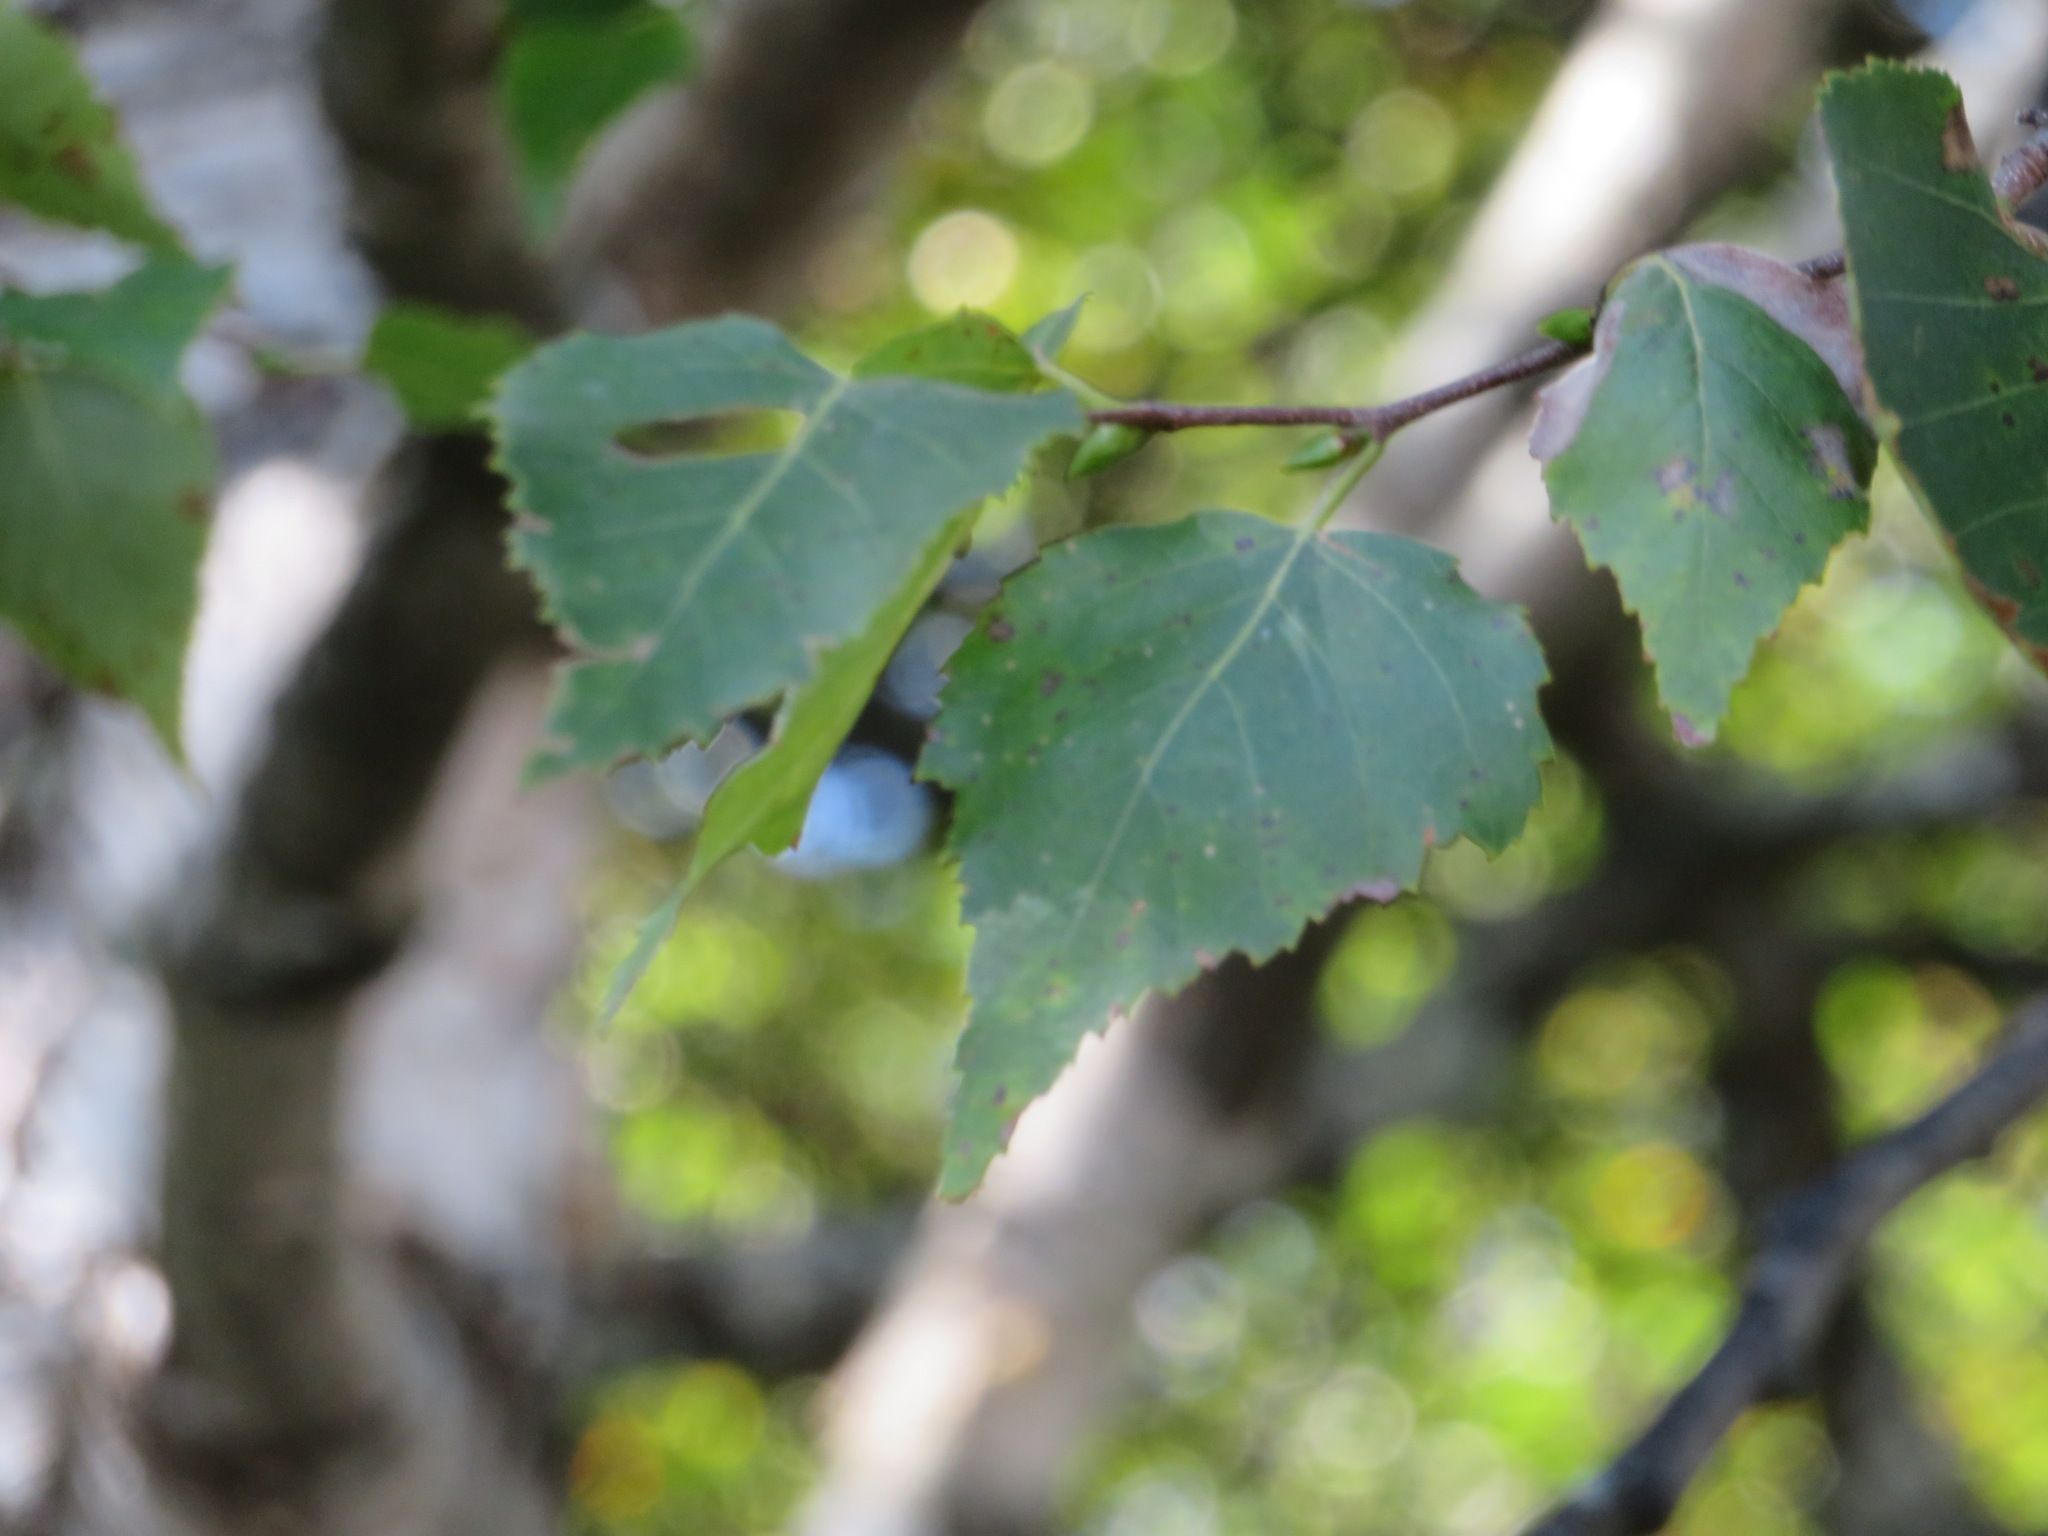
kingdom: Plantae
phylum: Tracheophyta
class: Magnoliopsida
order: Fagales
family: Betulaceae
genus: Betula
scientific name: Betula pendula
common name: Silver birch
